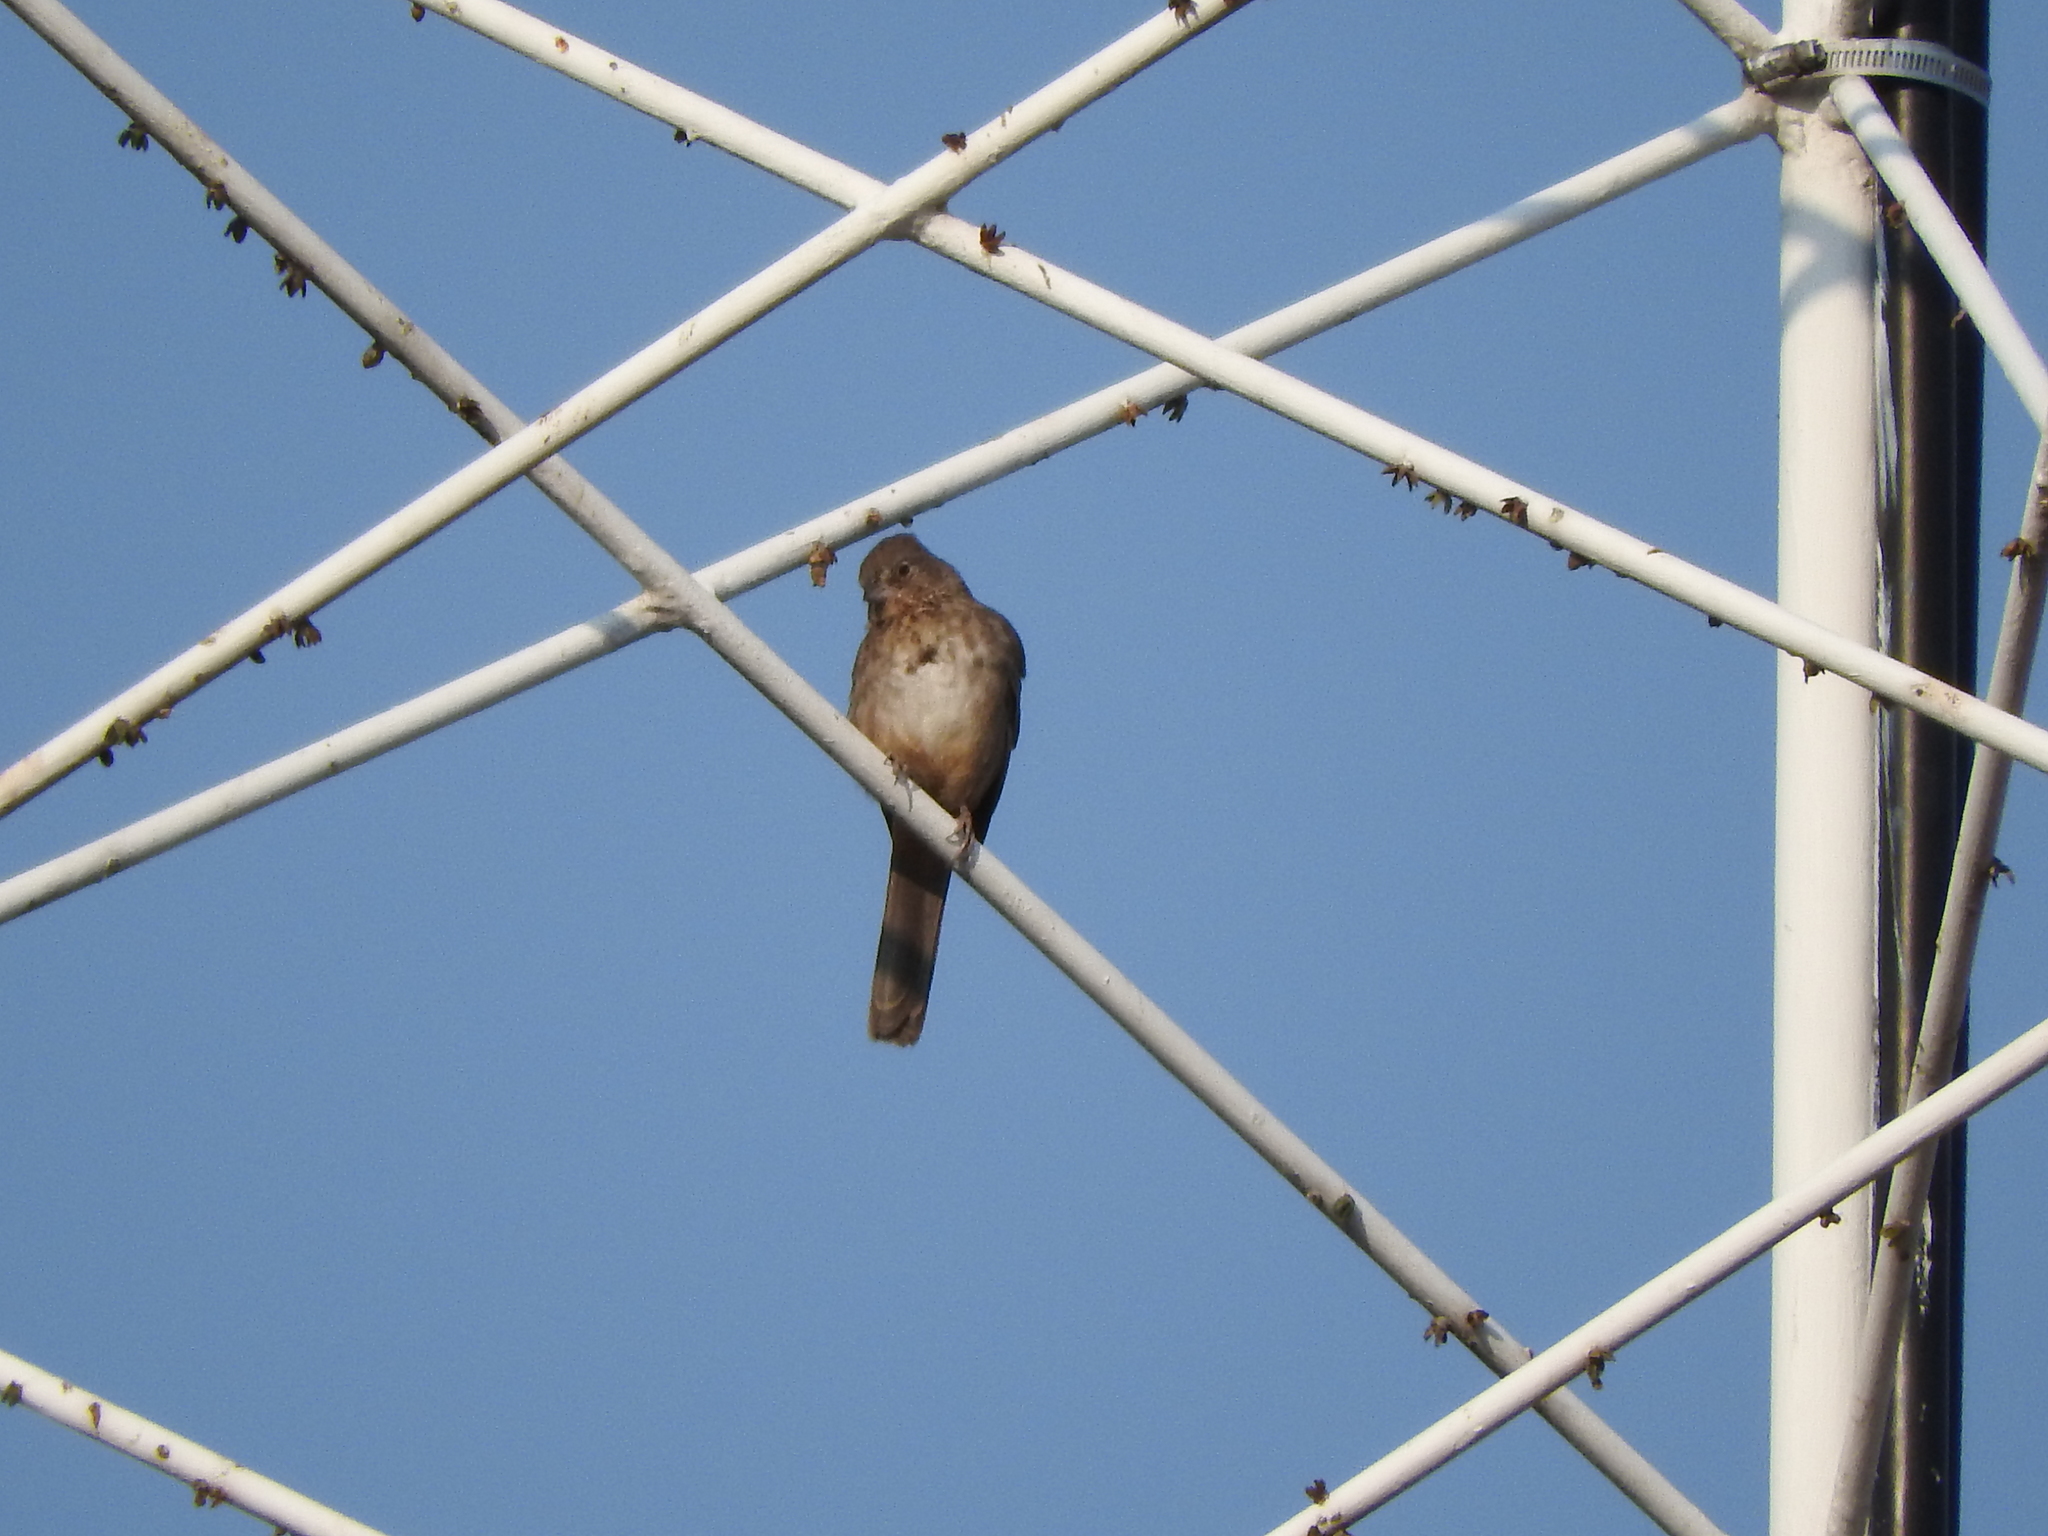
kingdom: Animalia
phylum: Chordata
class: Aves
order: Passeriformes
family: Passerellidae
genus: Melozone
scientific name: Melozone fusca
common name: Canyon towhee
